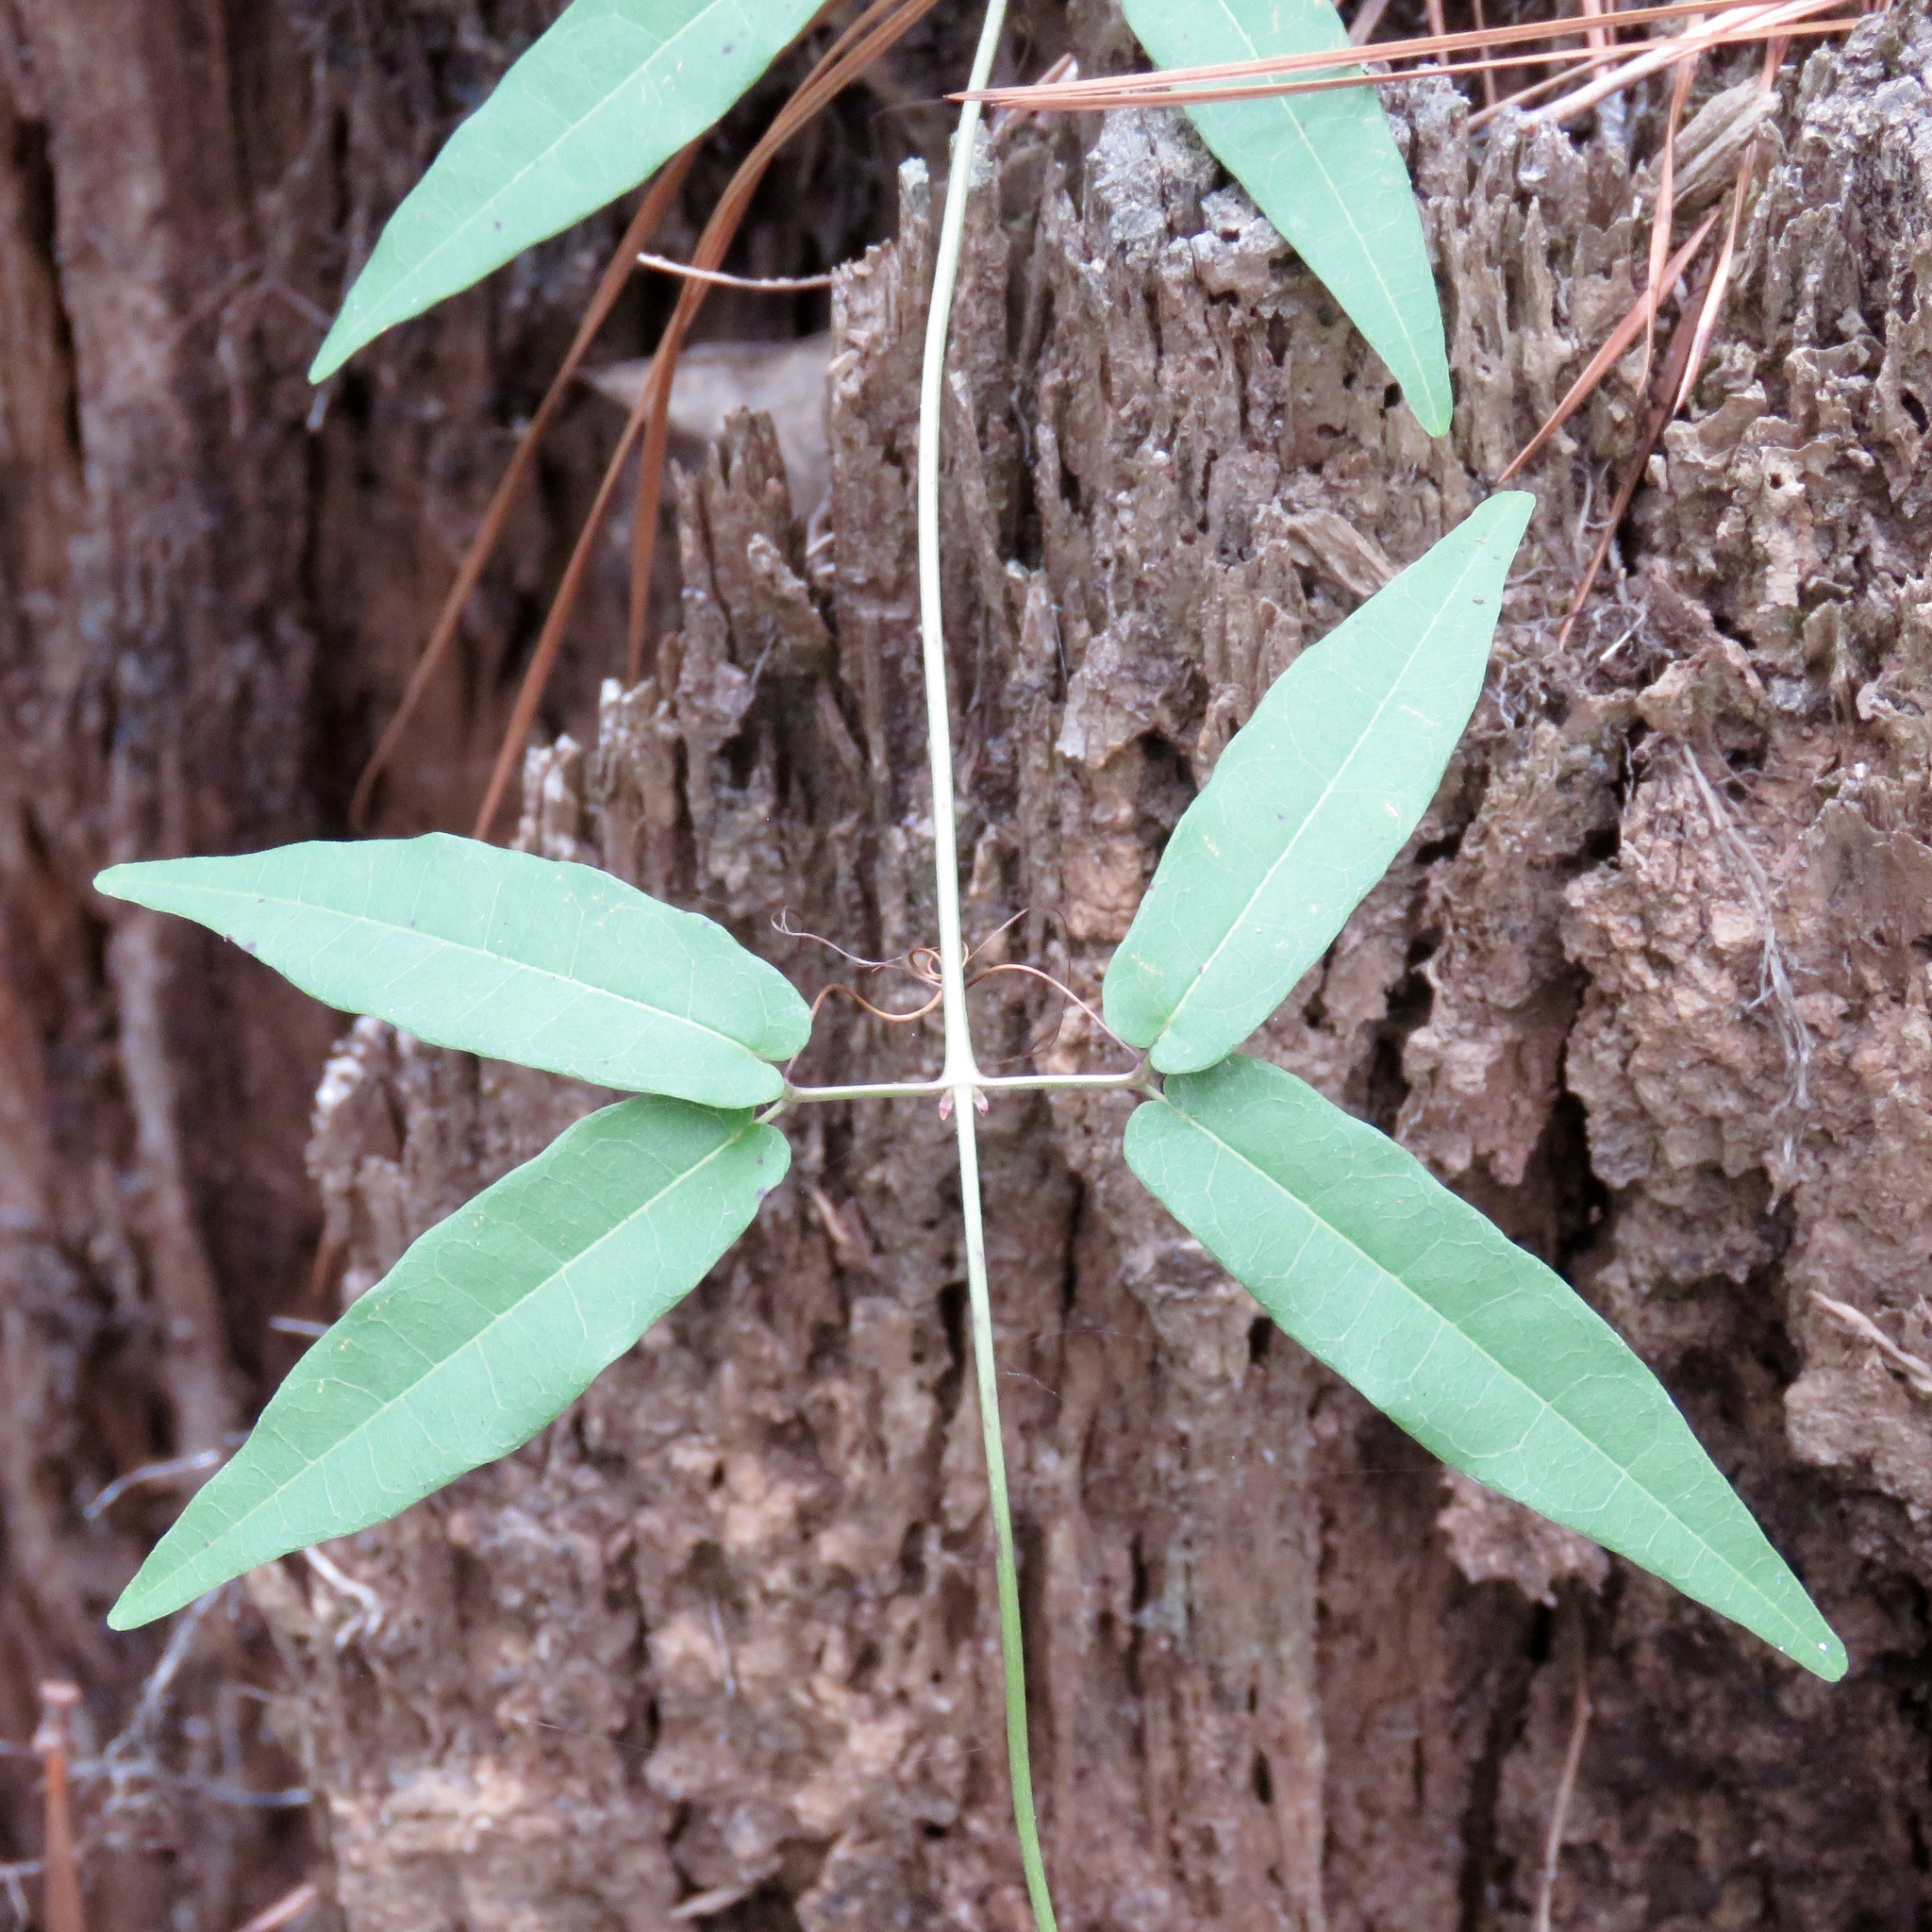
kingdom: Plantae
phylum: Tracheophyta
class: Magnoliopsida
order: Lamiales
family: Bignoniaceae
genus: Bignonia
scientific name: Bignonia capreolata
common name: Crossvine
